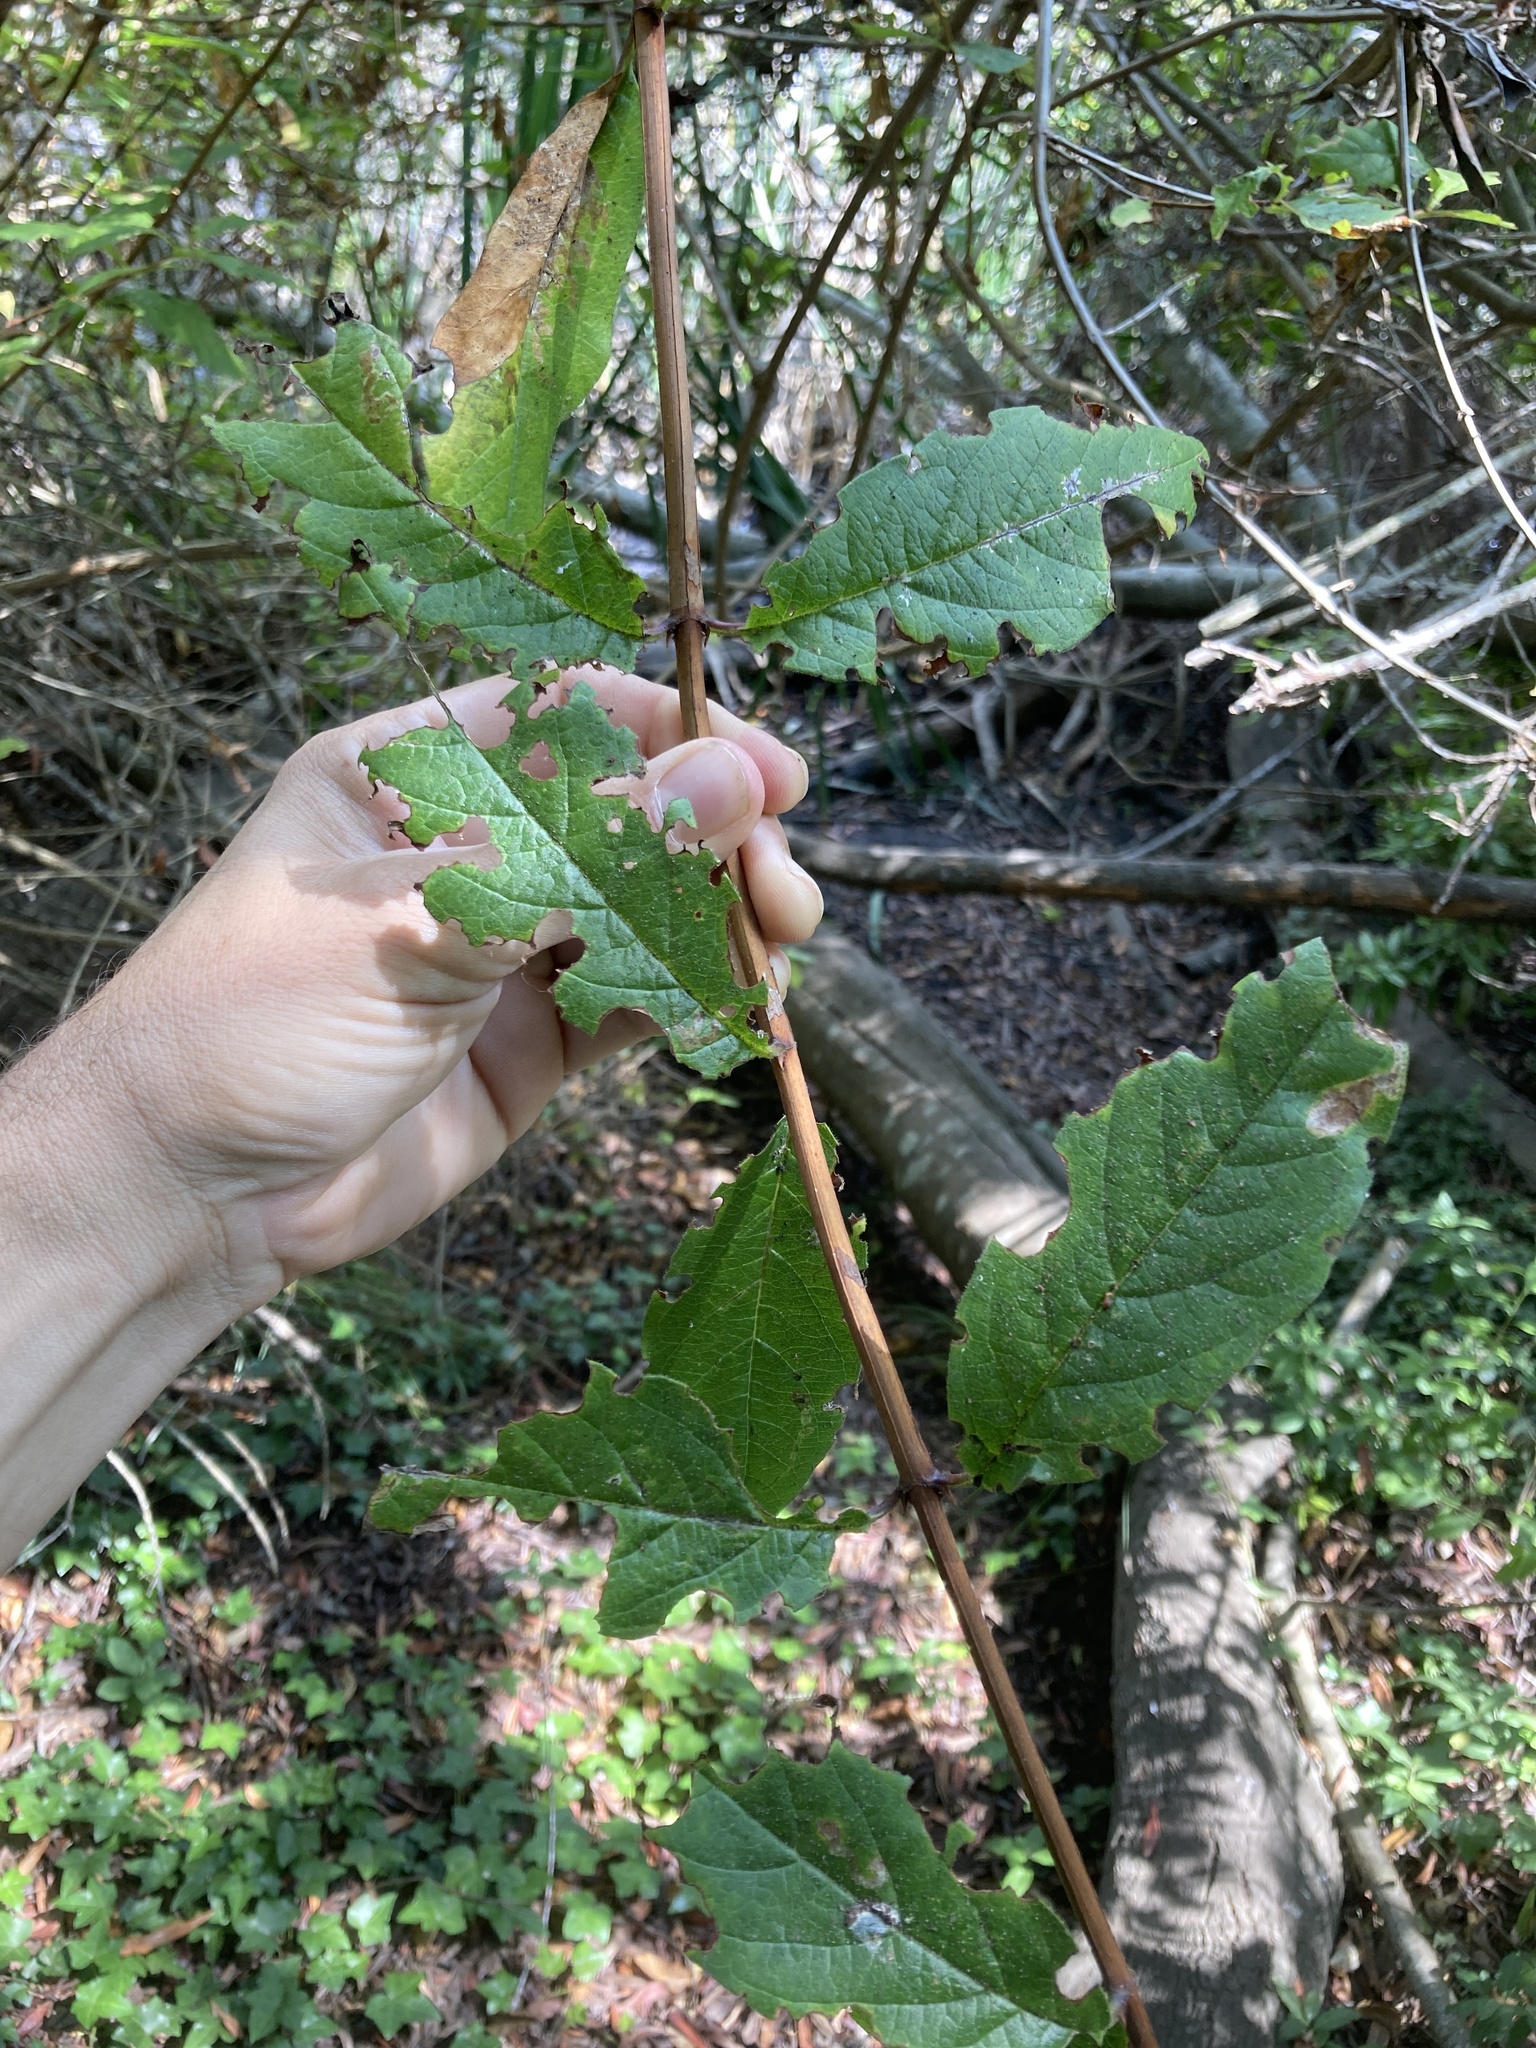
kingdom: Plantae
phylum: Tracheophyta
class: Magnoliopsida
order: Dipsacales
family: Caprifoliaceae
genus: Lonicera
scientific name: Lonicera involucrata
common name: Californian honeysuckle
